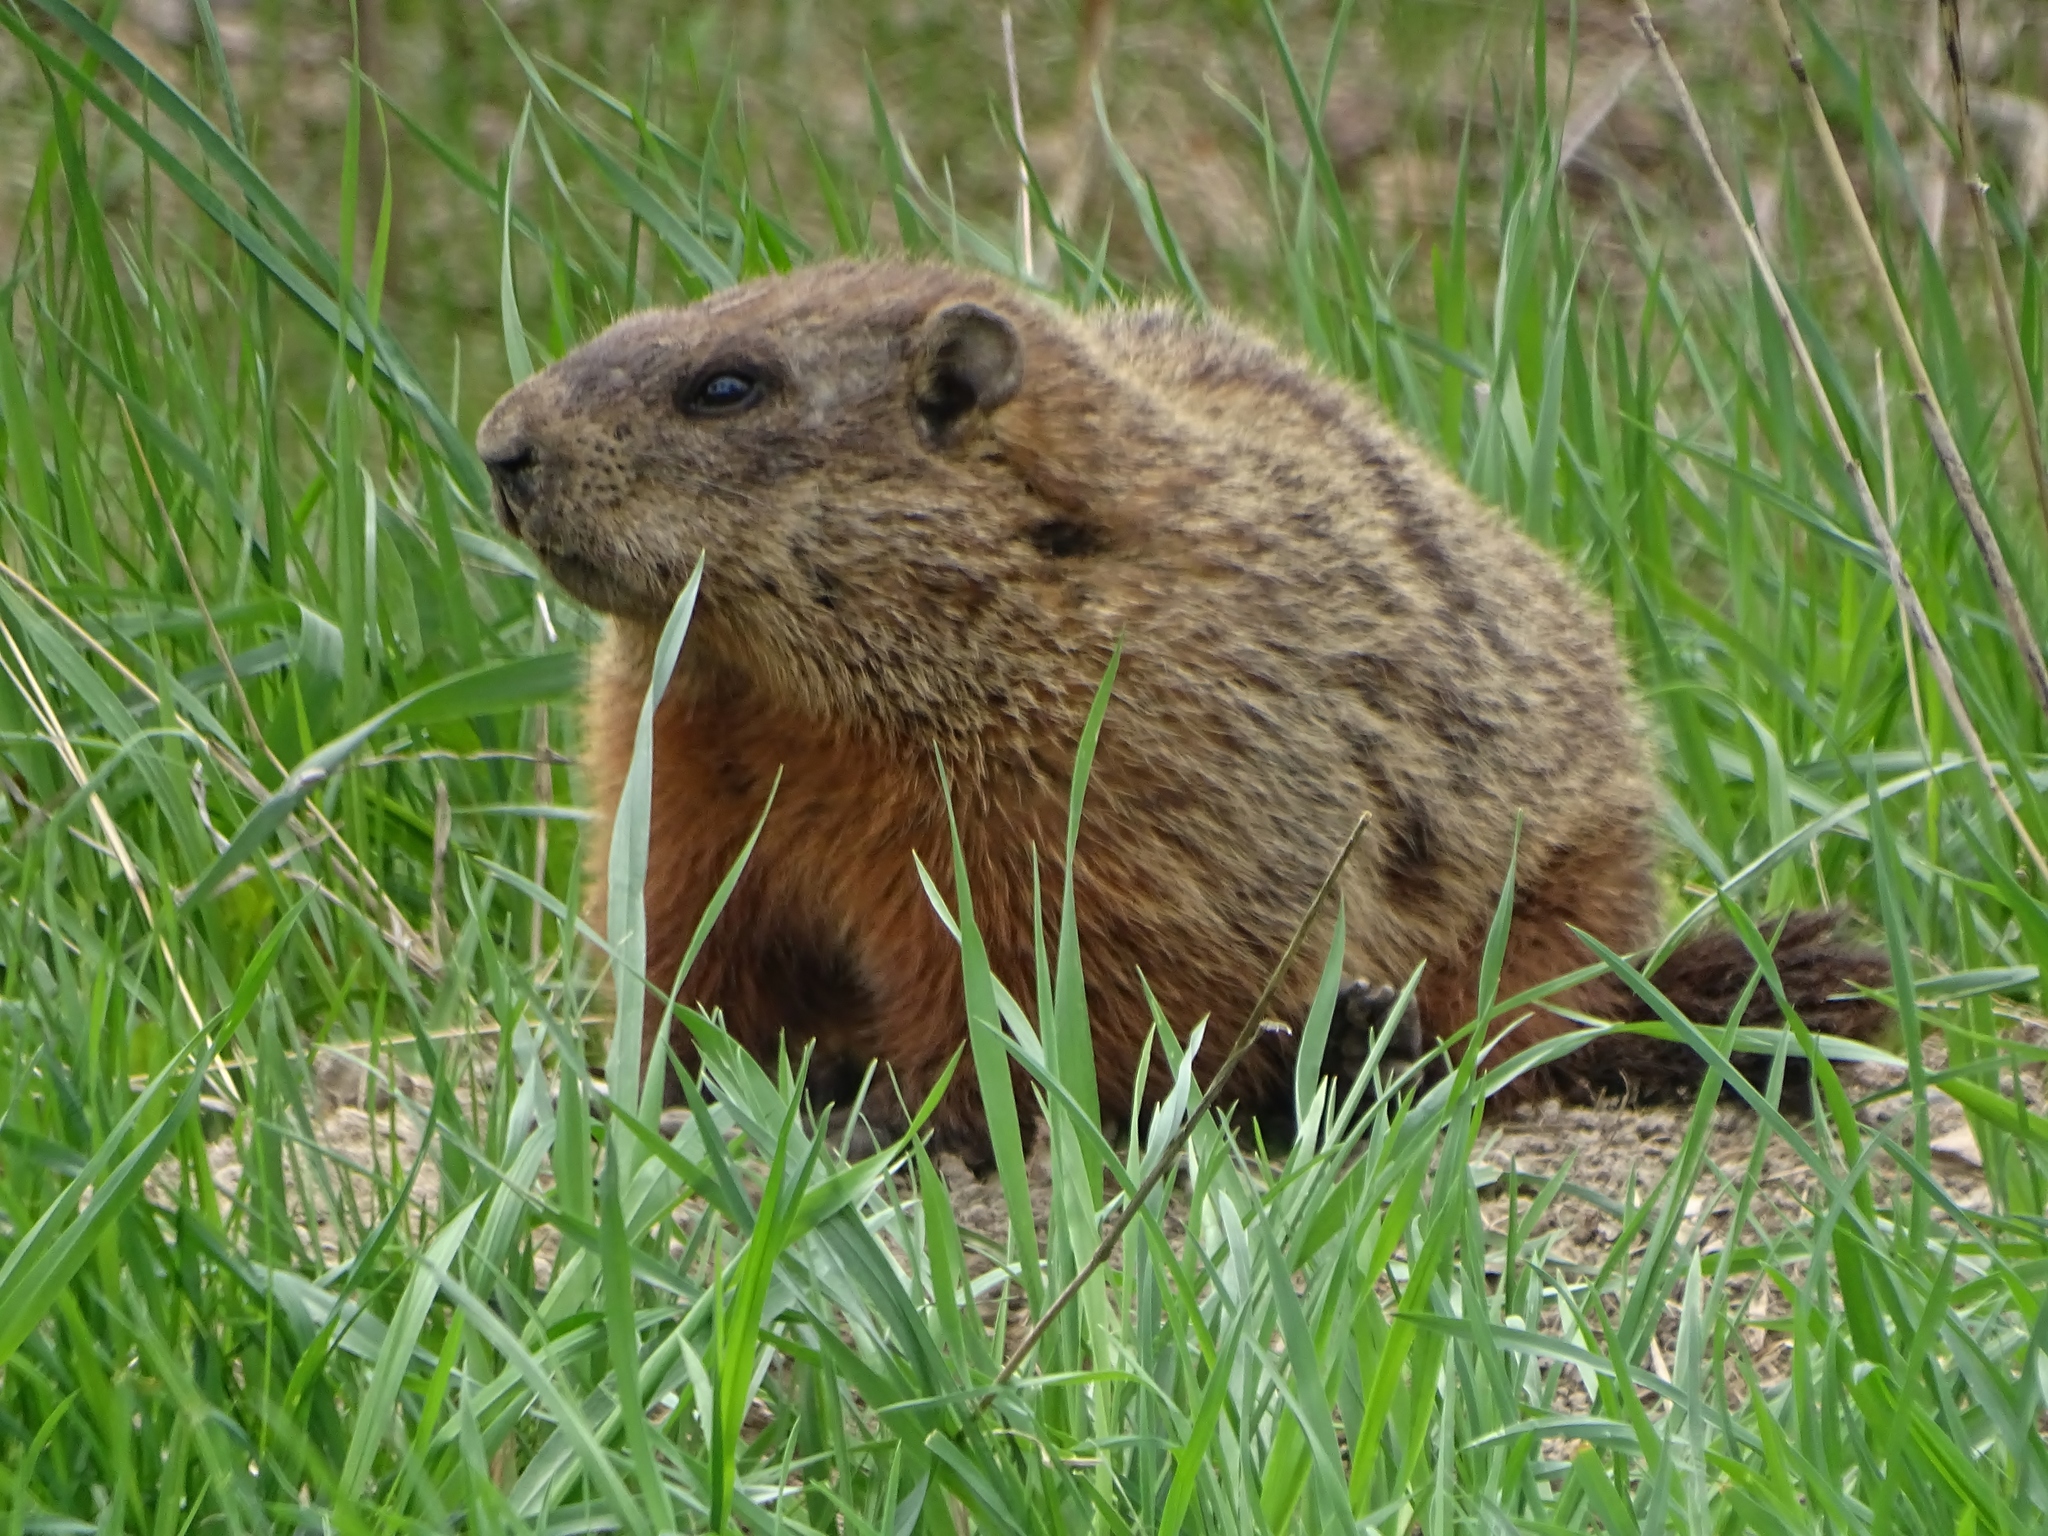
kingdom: Animalia
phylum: Chordata
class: Mammalia
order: Rodentia
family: Sciuridae
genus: Marmota
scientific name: Marmota monax
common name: Groundhog
